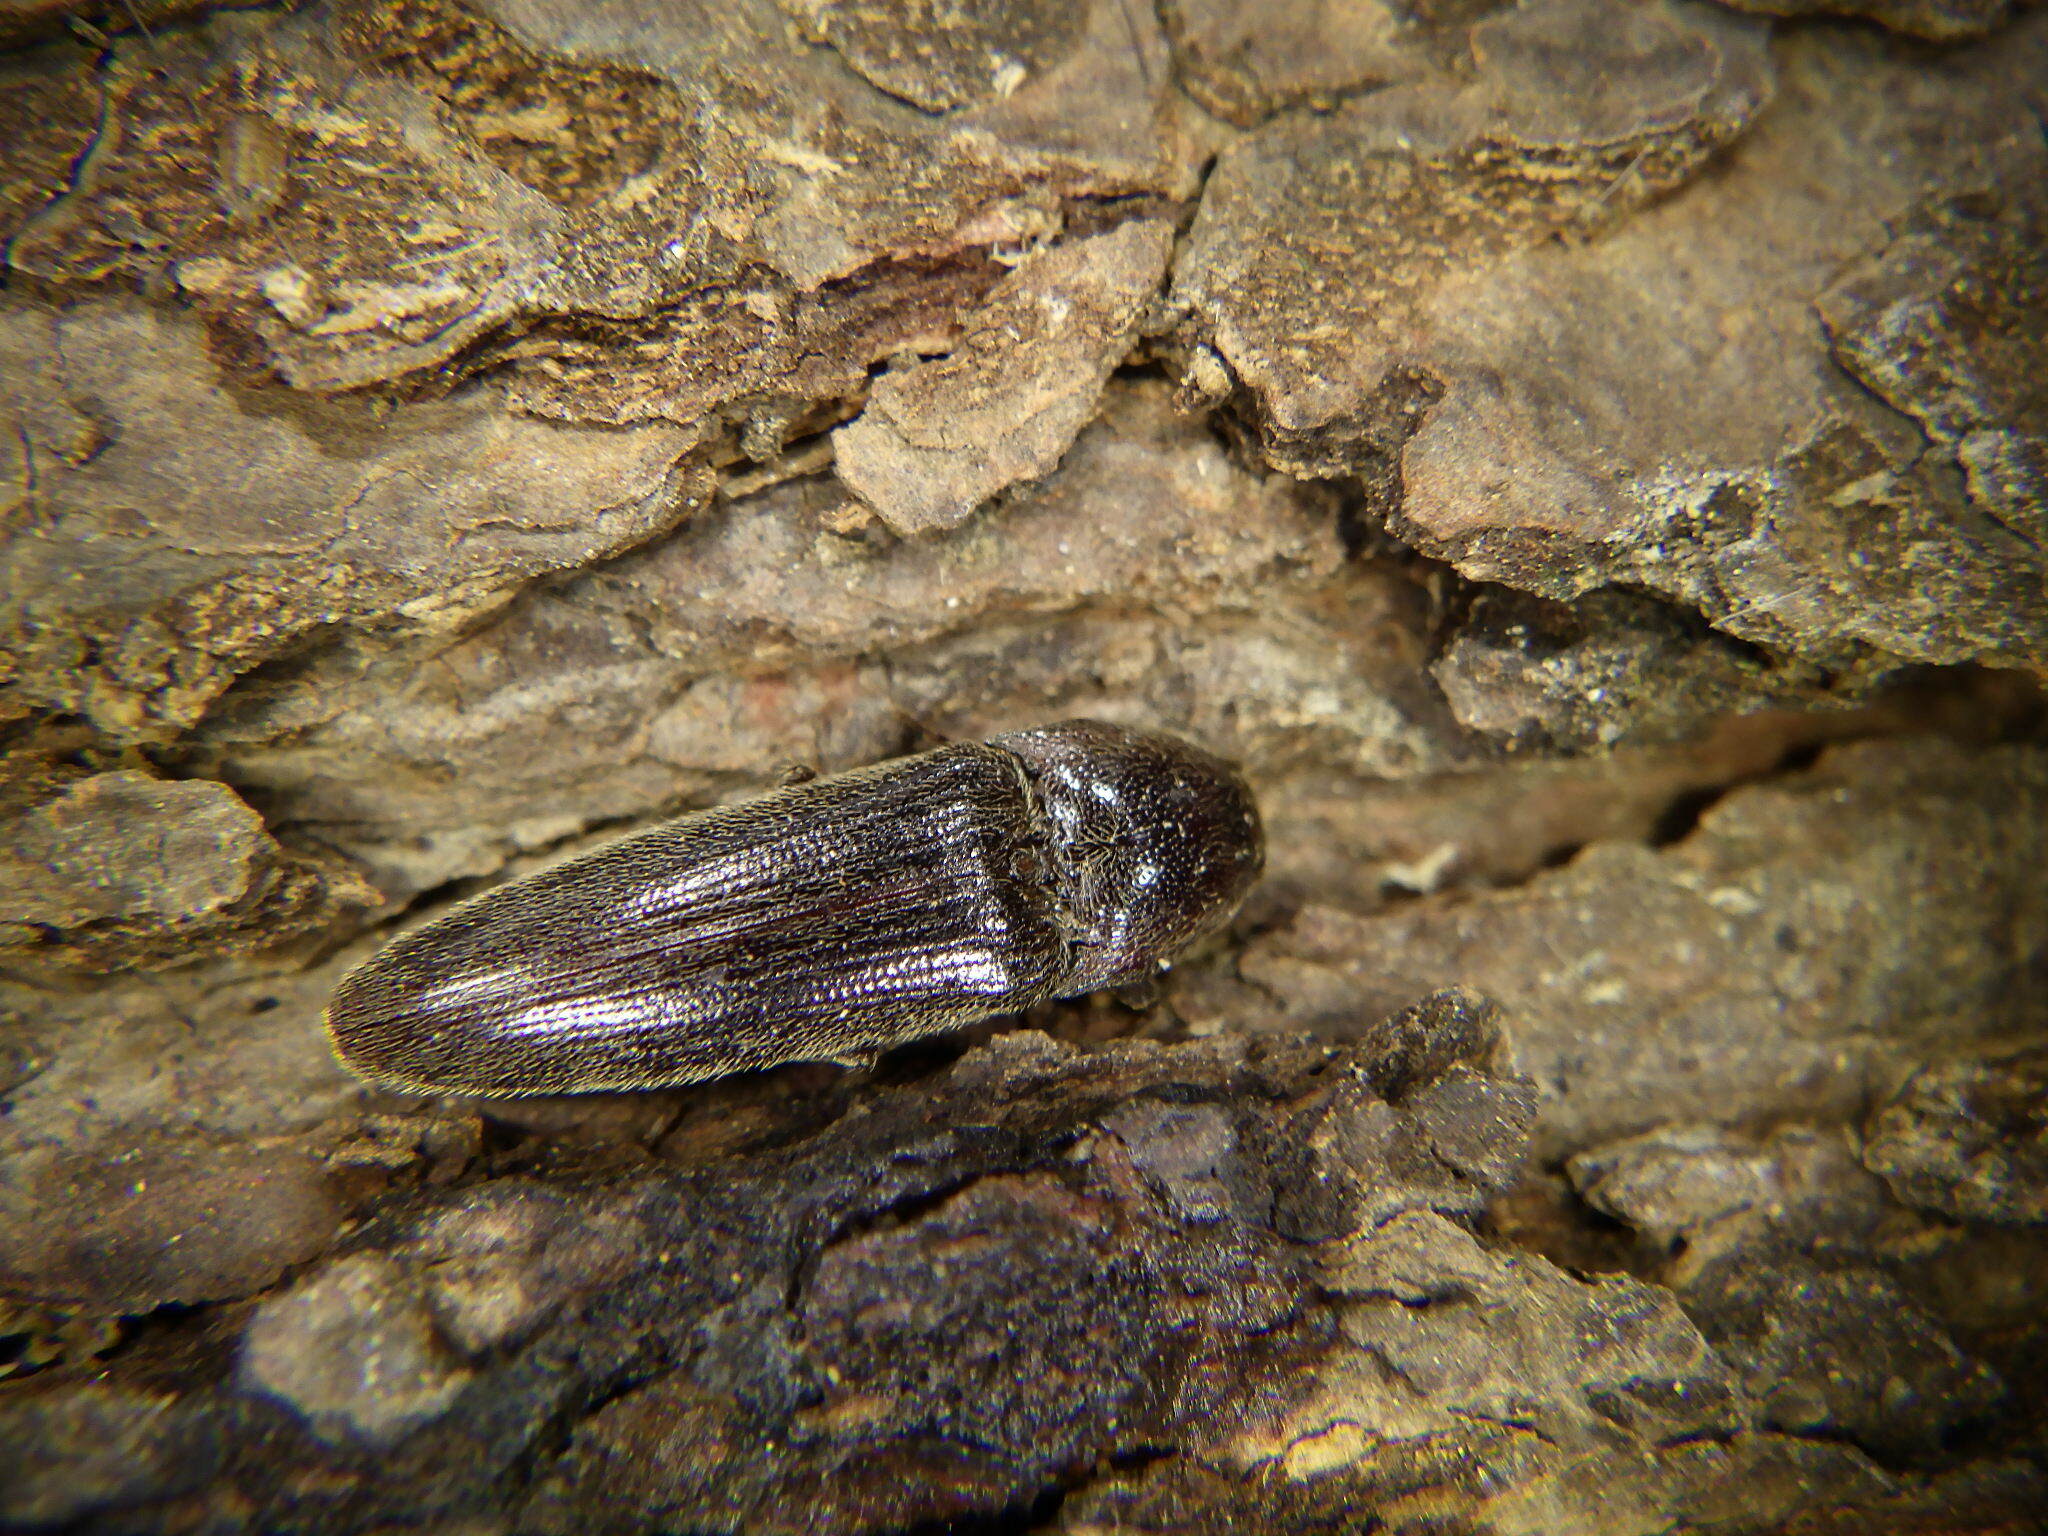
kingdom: Animalia
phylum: Arthropoda
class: Insecta
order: Coleoptera
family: Elateridae
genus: Melanotus
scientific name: Melanotus
